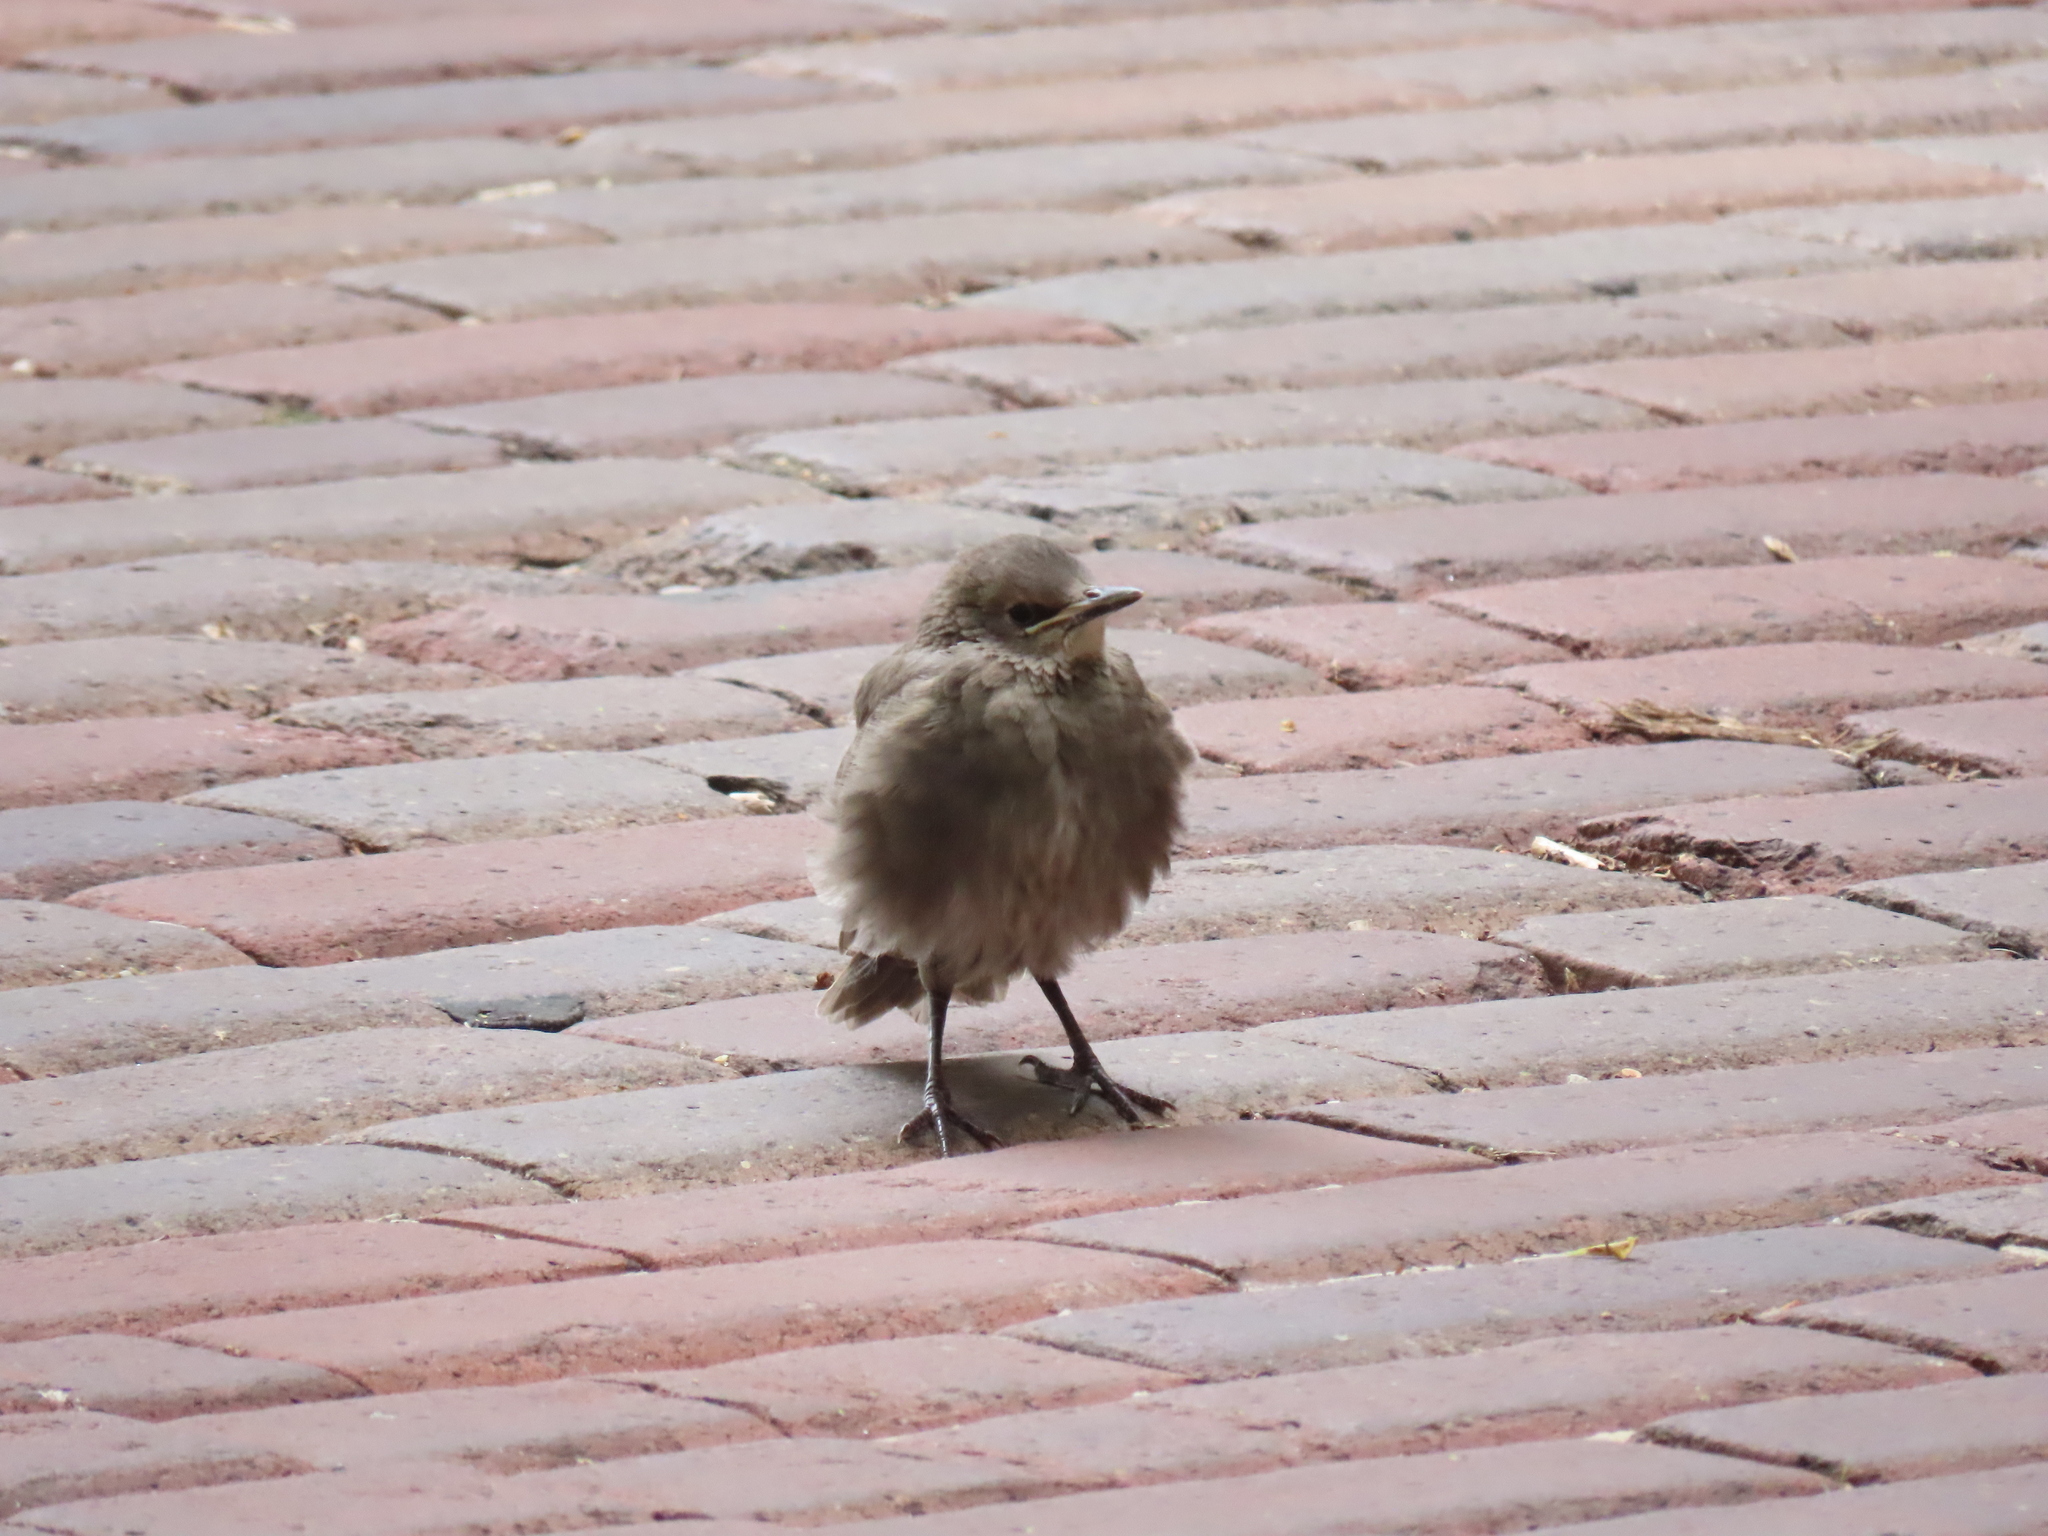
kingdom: Animalia
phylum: Chordata
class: Aves
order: Passeriformes
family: Sturnidae
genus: Sturnus
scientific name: Sturnus vulgaris
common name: Common starling
